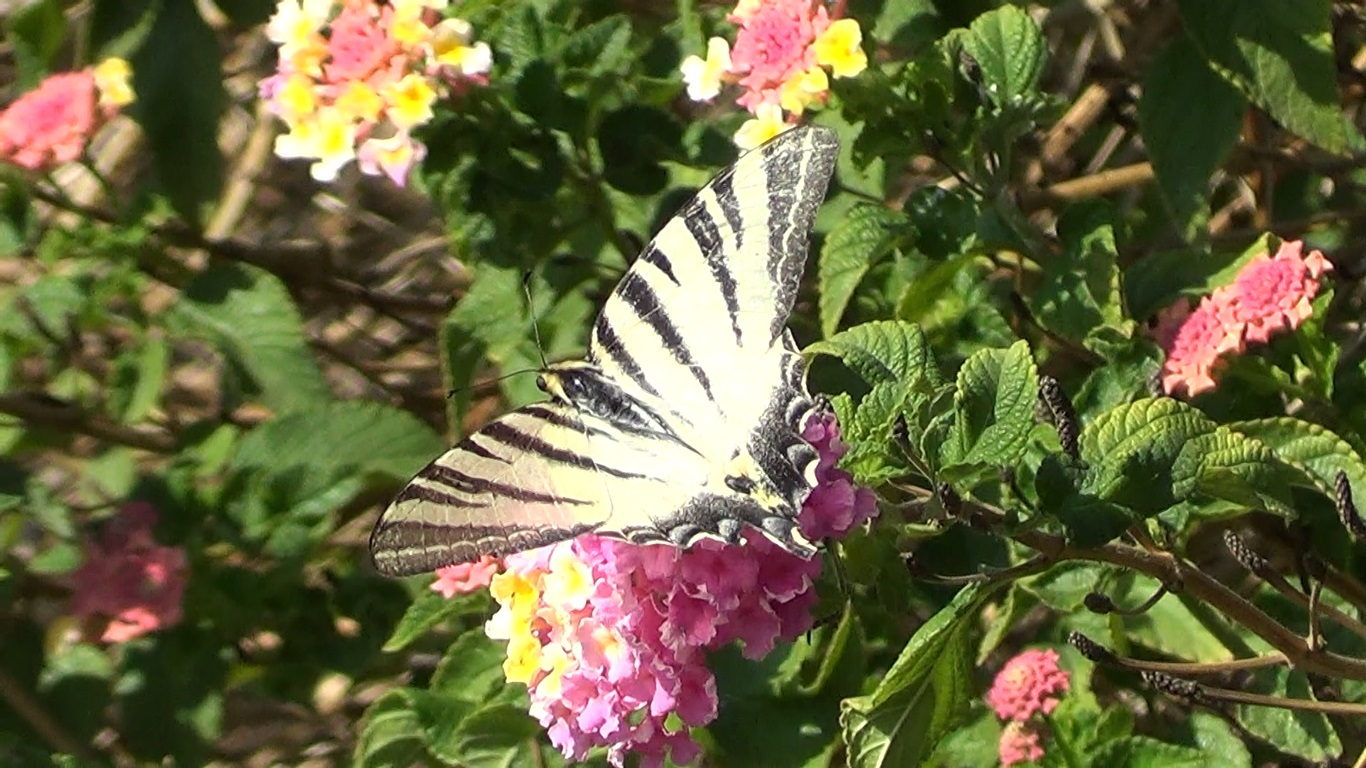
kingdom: Animalia
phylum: Arthropoda
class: Insecta
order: Lepidoptera
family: Papilionidae
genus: Iphiclides
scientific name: Iphiclides podalirius
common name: Scarce swallowtail
